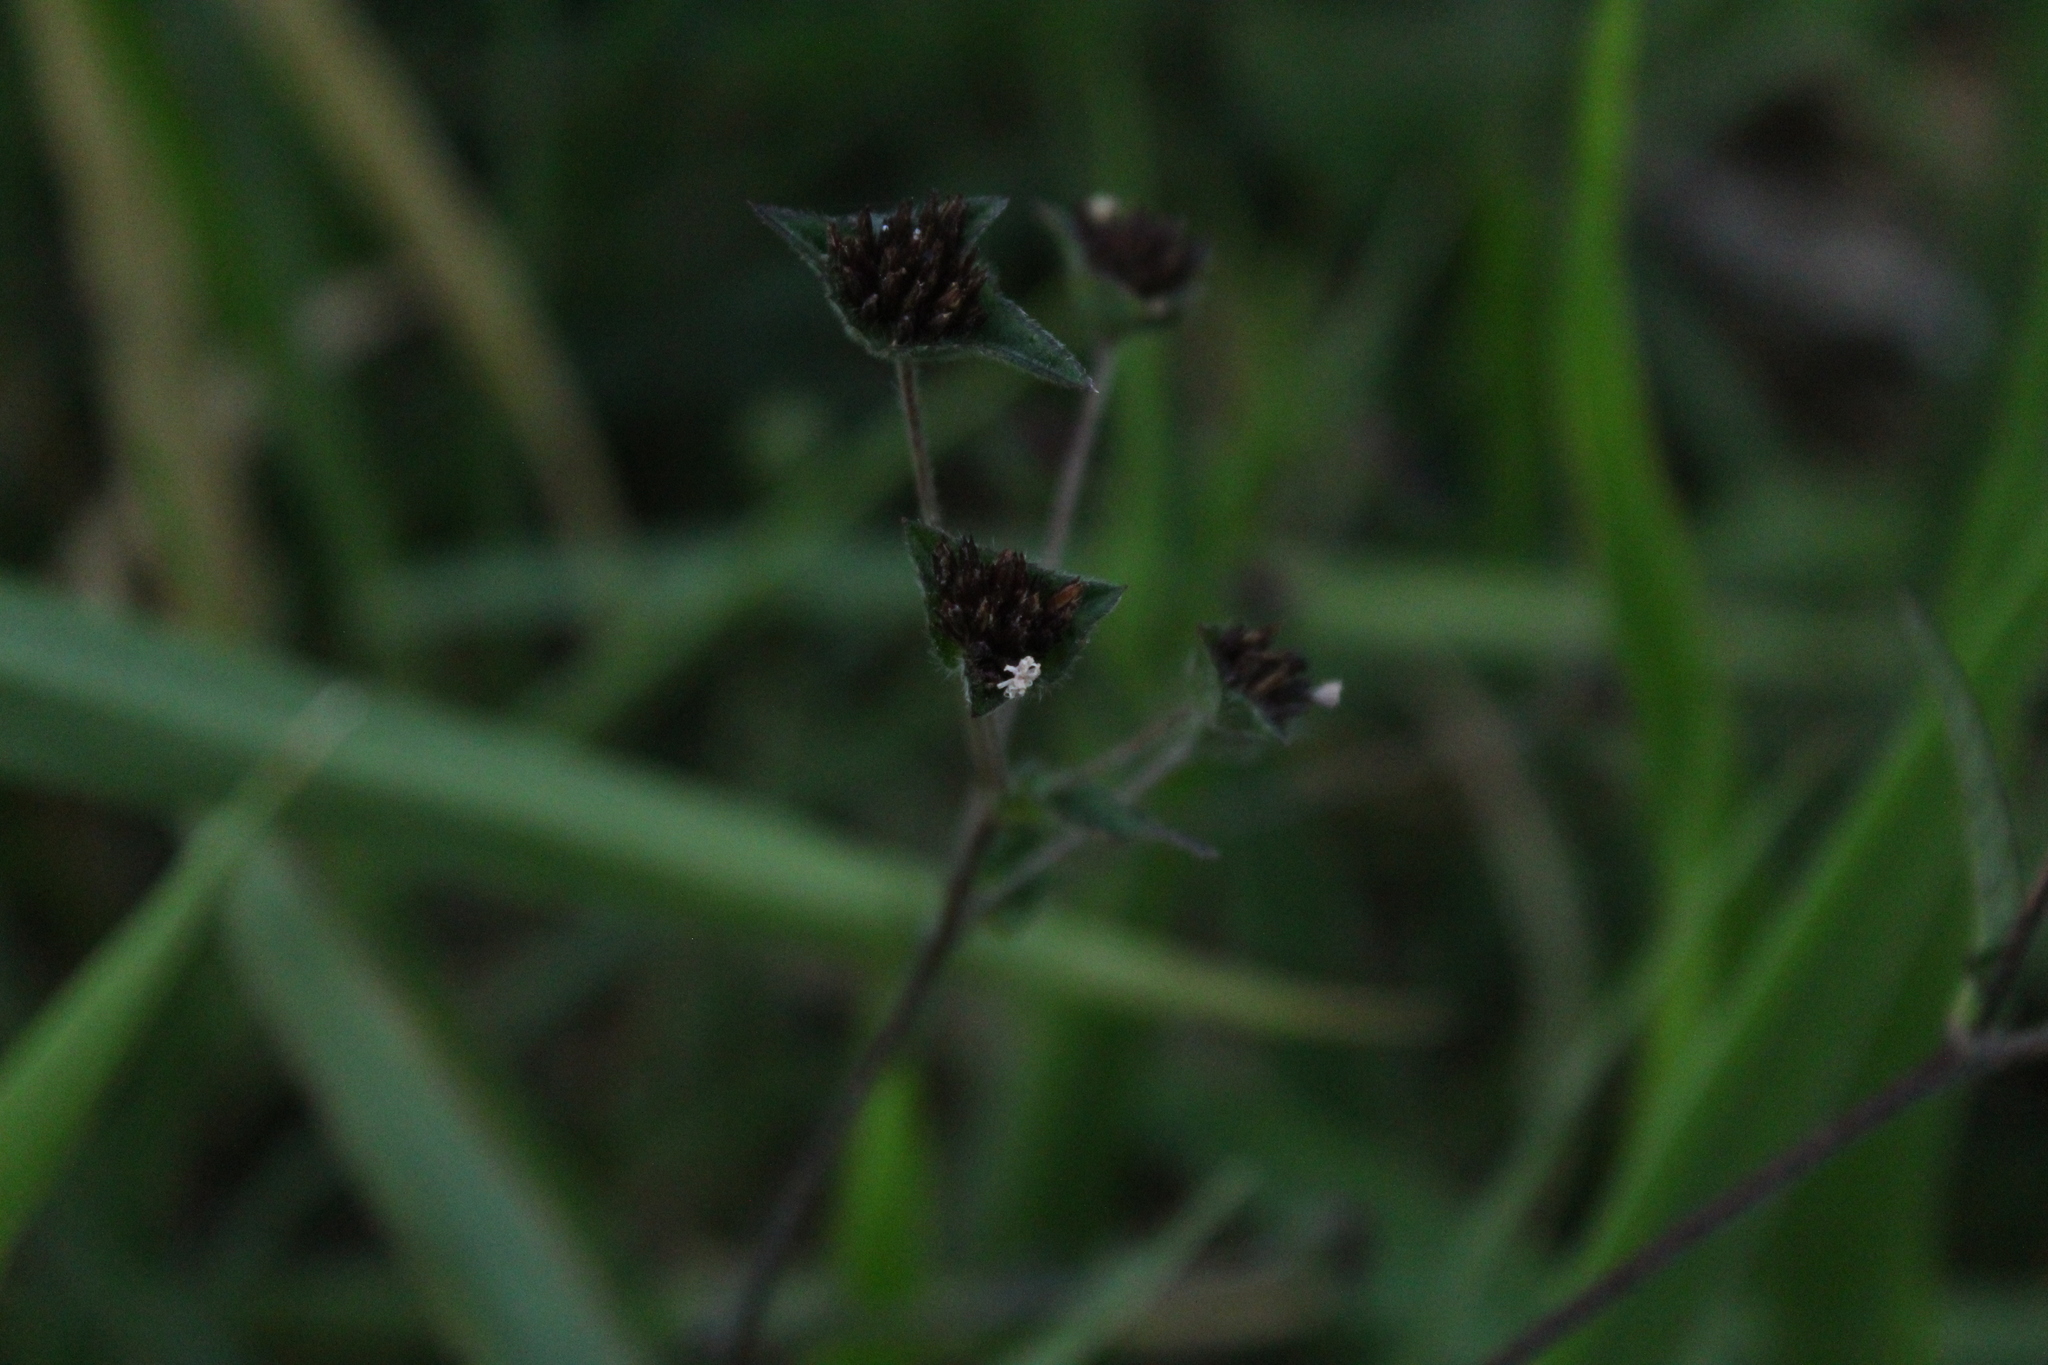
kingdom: Plantae
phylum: Tracheophyta
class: Magnoliopsida
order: Asterales
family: Asteraceae
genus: Elephantopus
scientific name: Elephantopus mollis
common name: Soft elephantsfoot
